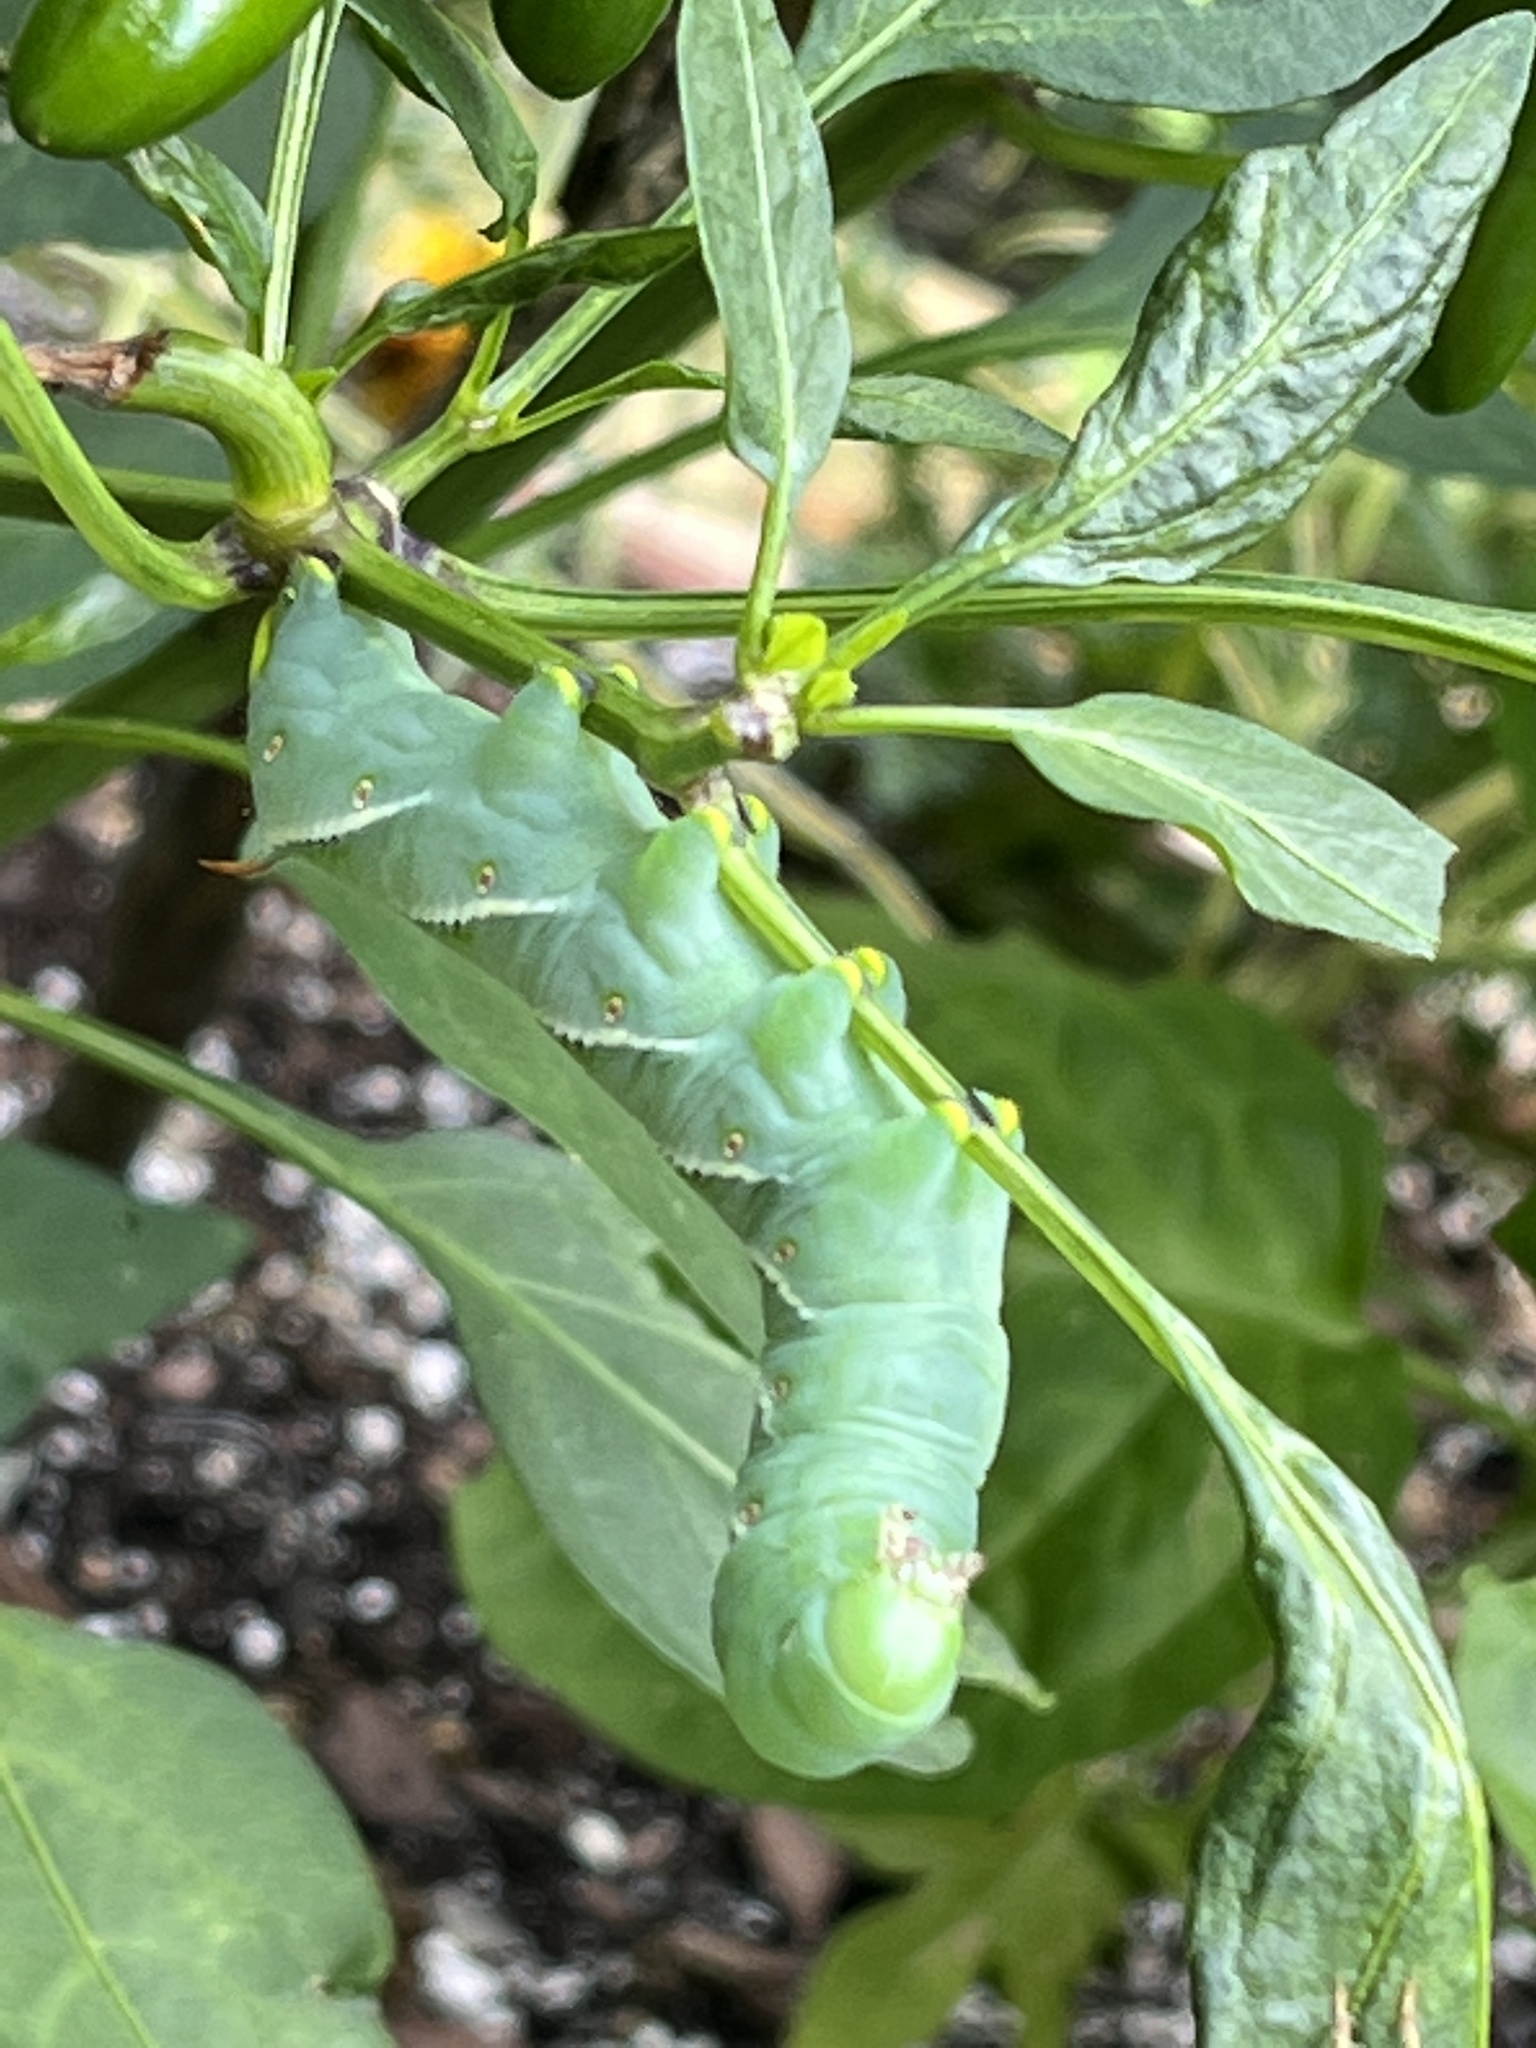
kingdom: Animalia
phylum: Arthropoda
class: Insecta
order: Lepidoptera
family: Sphingidae
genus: Manduca
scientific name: Manduca sexta
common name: Carolina sphinx
